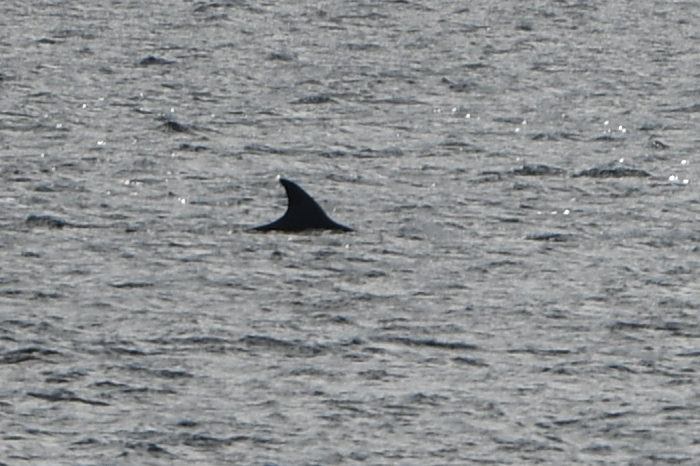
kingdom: Animalia
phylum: Chordata
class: Mammalia
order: Cetacea
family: Balaenopteridae
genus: Balaenoptera
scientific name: Balaenoptera borealis
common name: Sei whale
